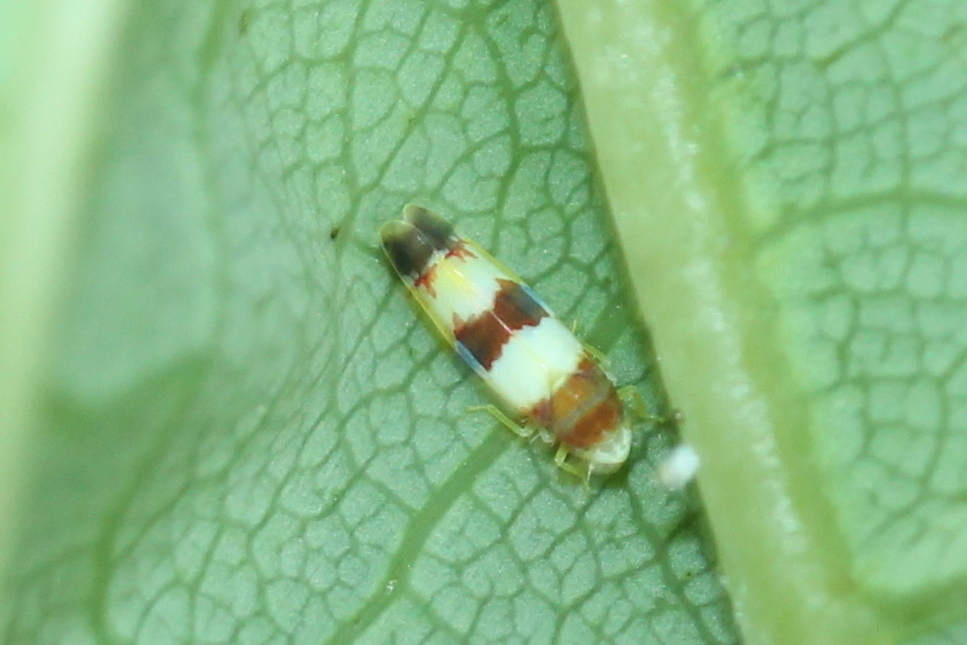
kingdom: Animalia
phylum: Arthropoda
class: Insecta
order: Hemiptera
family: Cicadellidae
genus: Erythroneura
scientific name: Erythroneura bistrata
